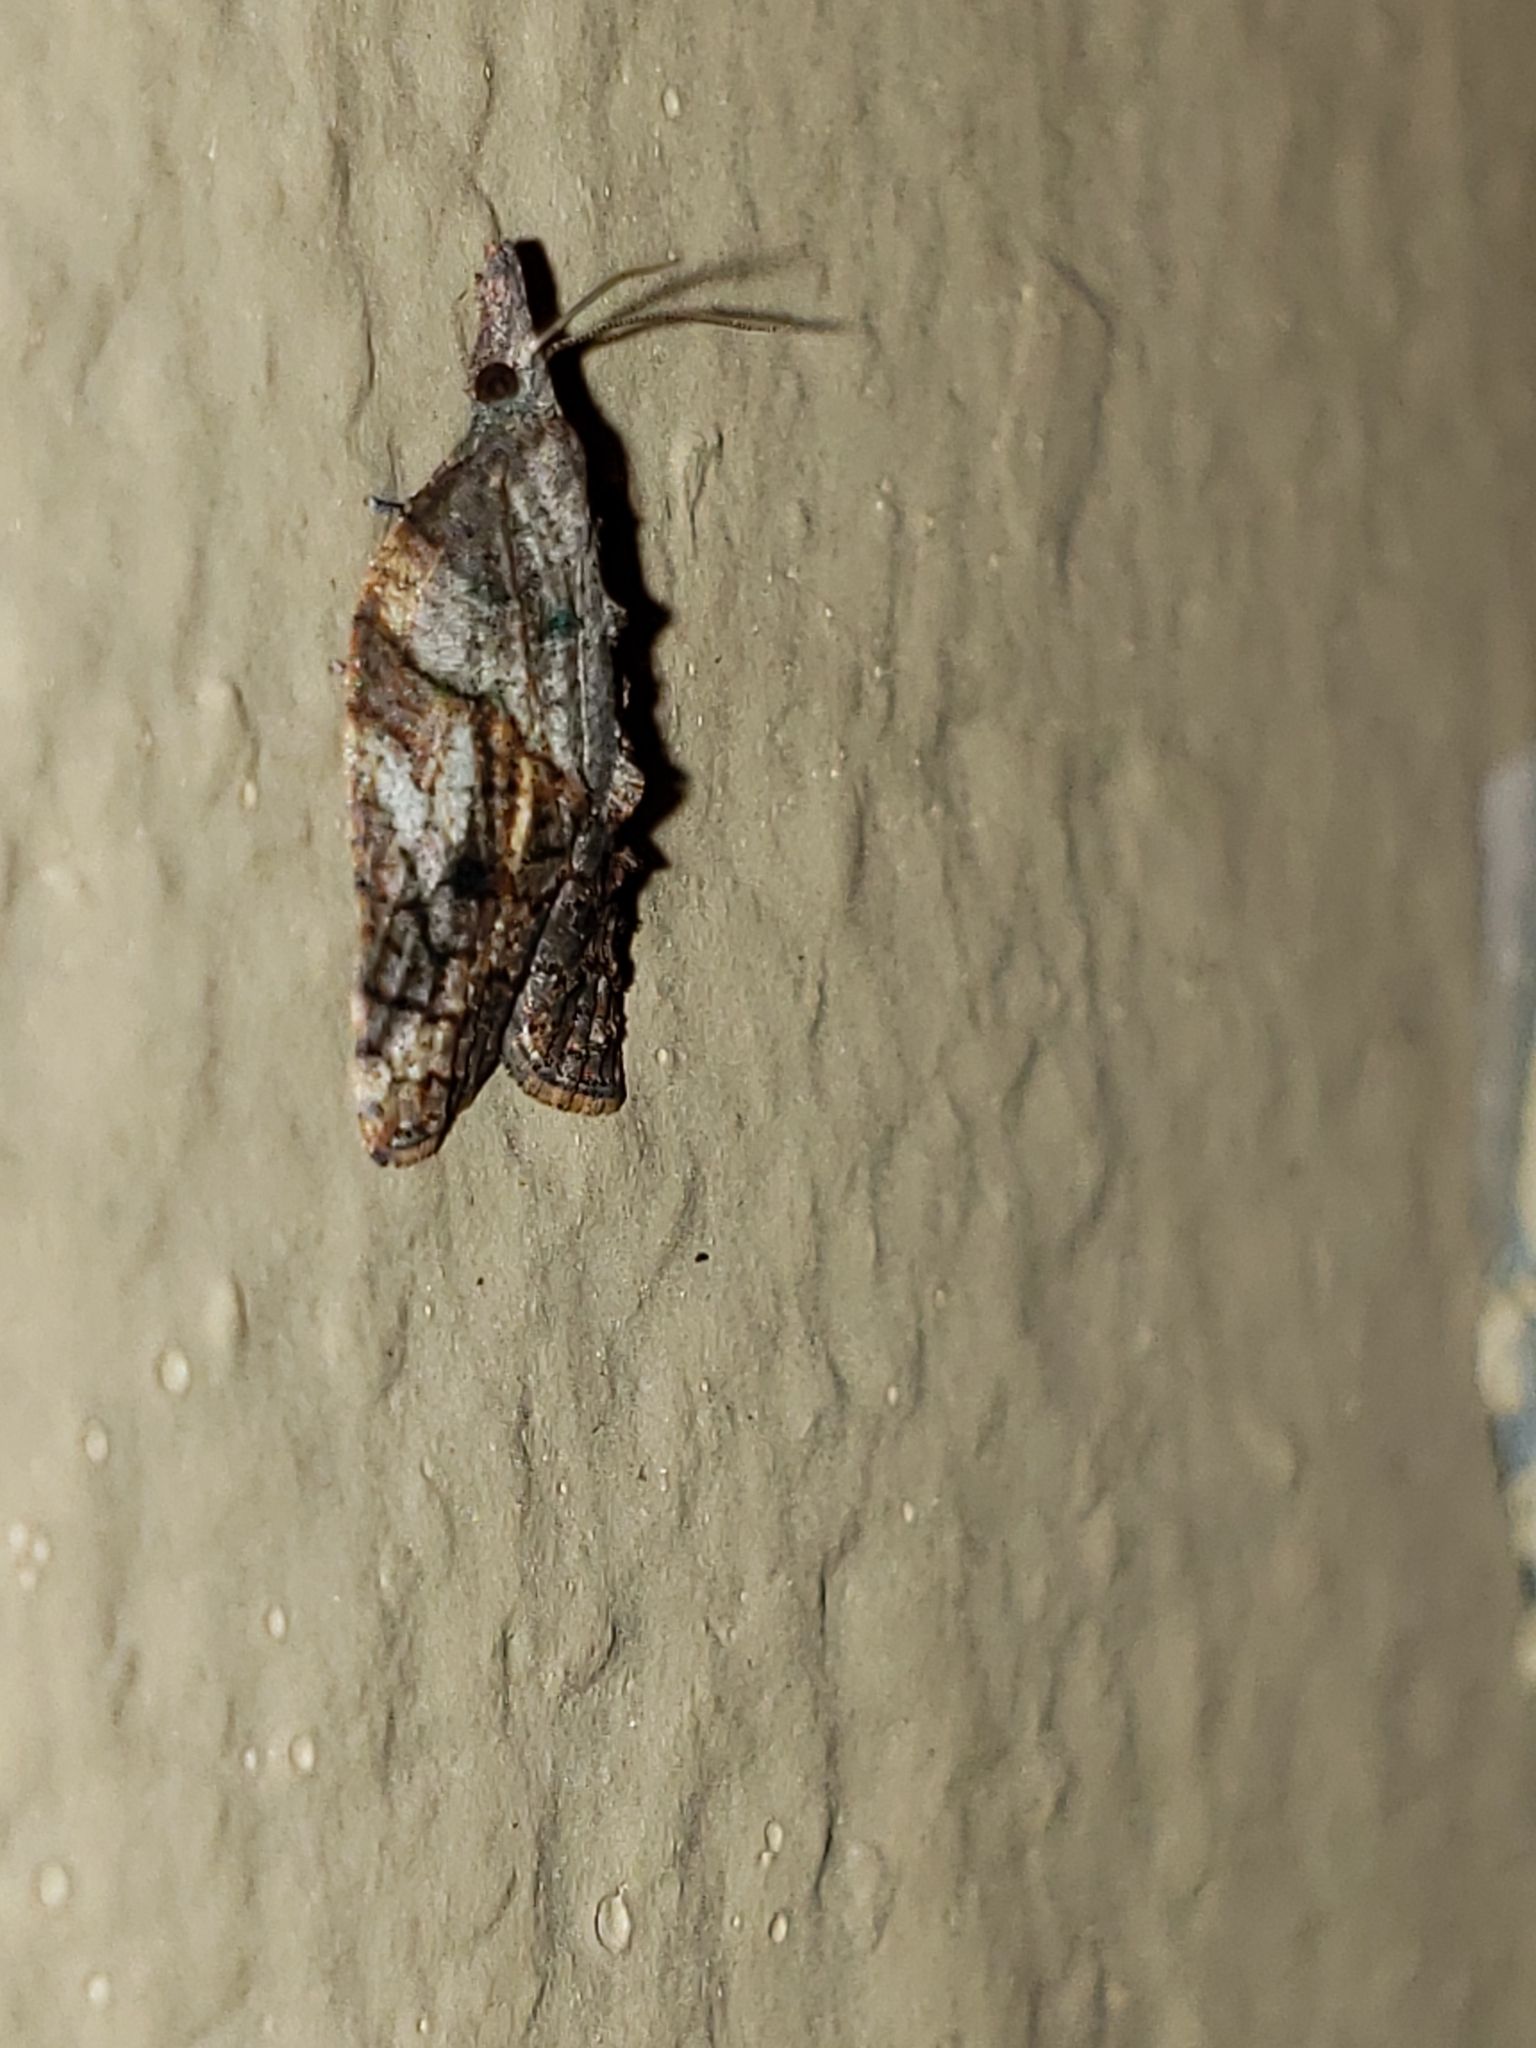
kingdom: Animalia
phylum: Arthropoda
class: Insecta
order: Lepidoptera
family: Tortricidae
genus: Platynota
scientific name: Platynota idaeusalis
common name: Tufted apple bud moth
